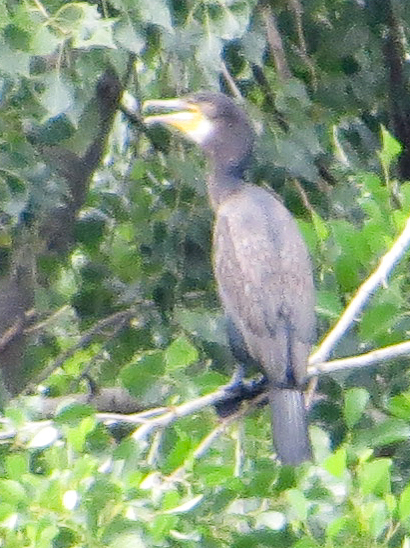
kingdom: Animalia
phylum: Chordata
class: Aves
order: Suliformes
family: Phalacrocoracidae
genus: Phalacrocorax
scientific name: Phalacrocorax carbo
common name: Great cormorant
